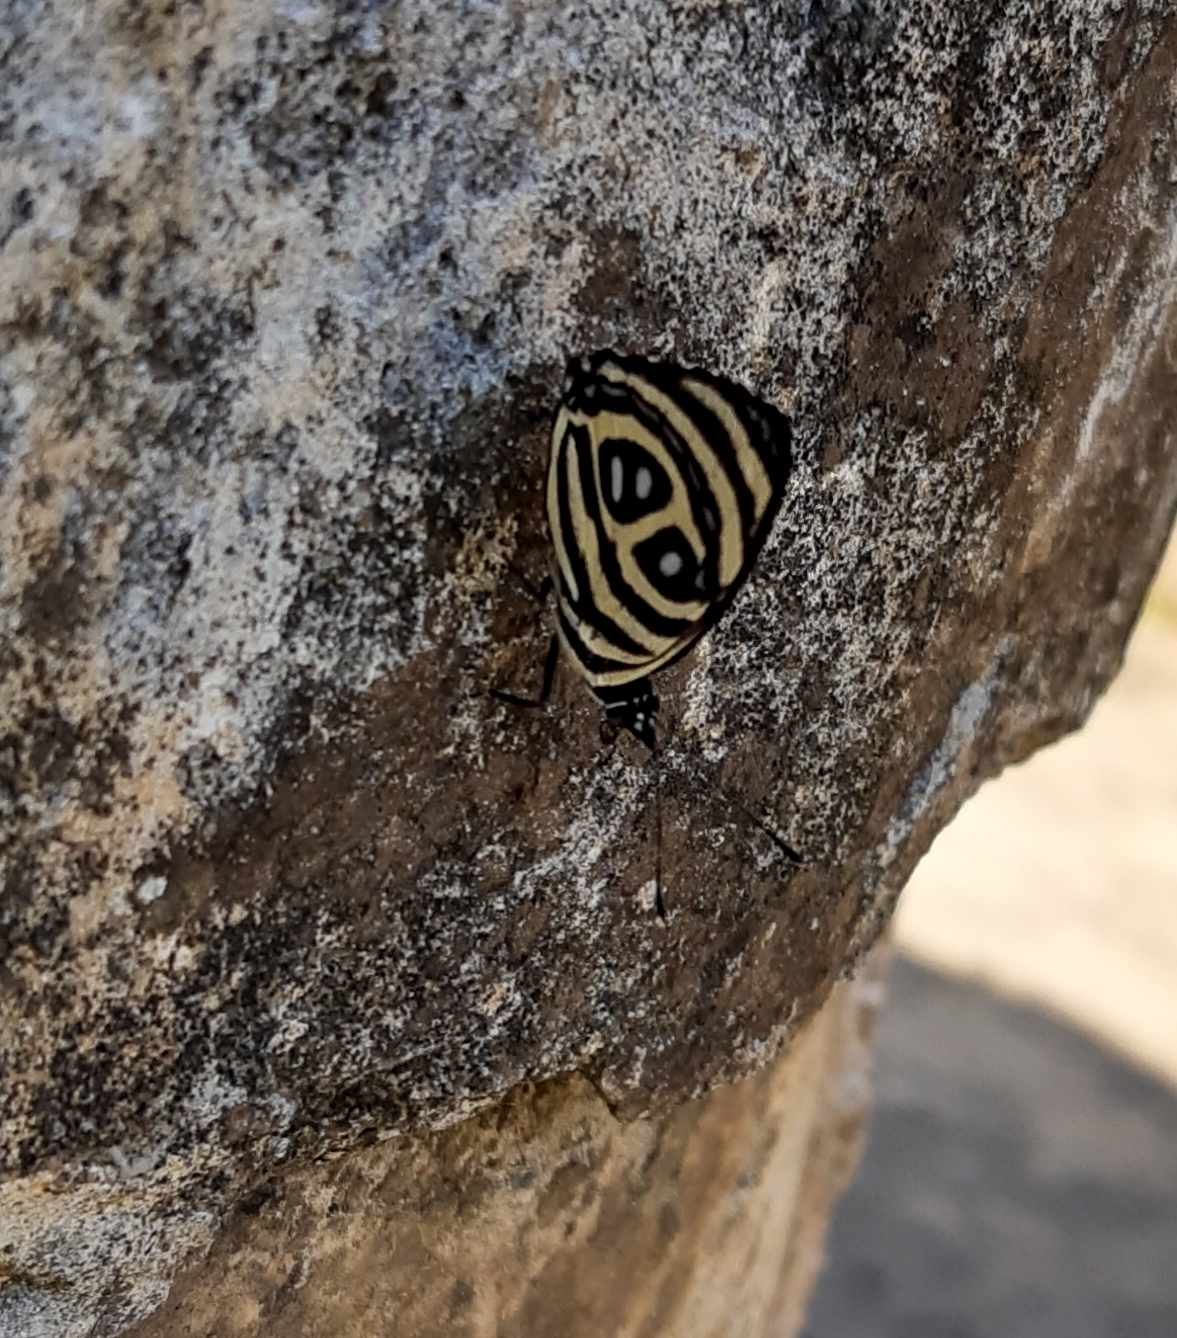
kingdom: Animalia
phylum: Arthropoda
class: Insecta
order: Lepidoptera
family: Nymphalidae
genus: Catagramma
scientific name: Catagramma pyracmon
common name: Google-eyed eighty-eight
